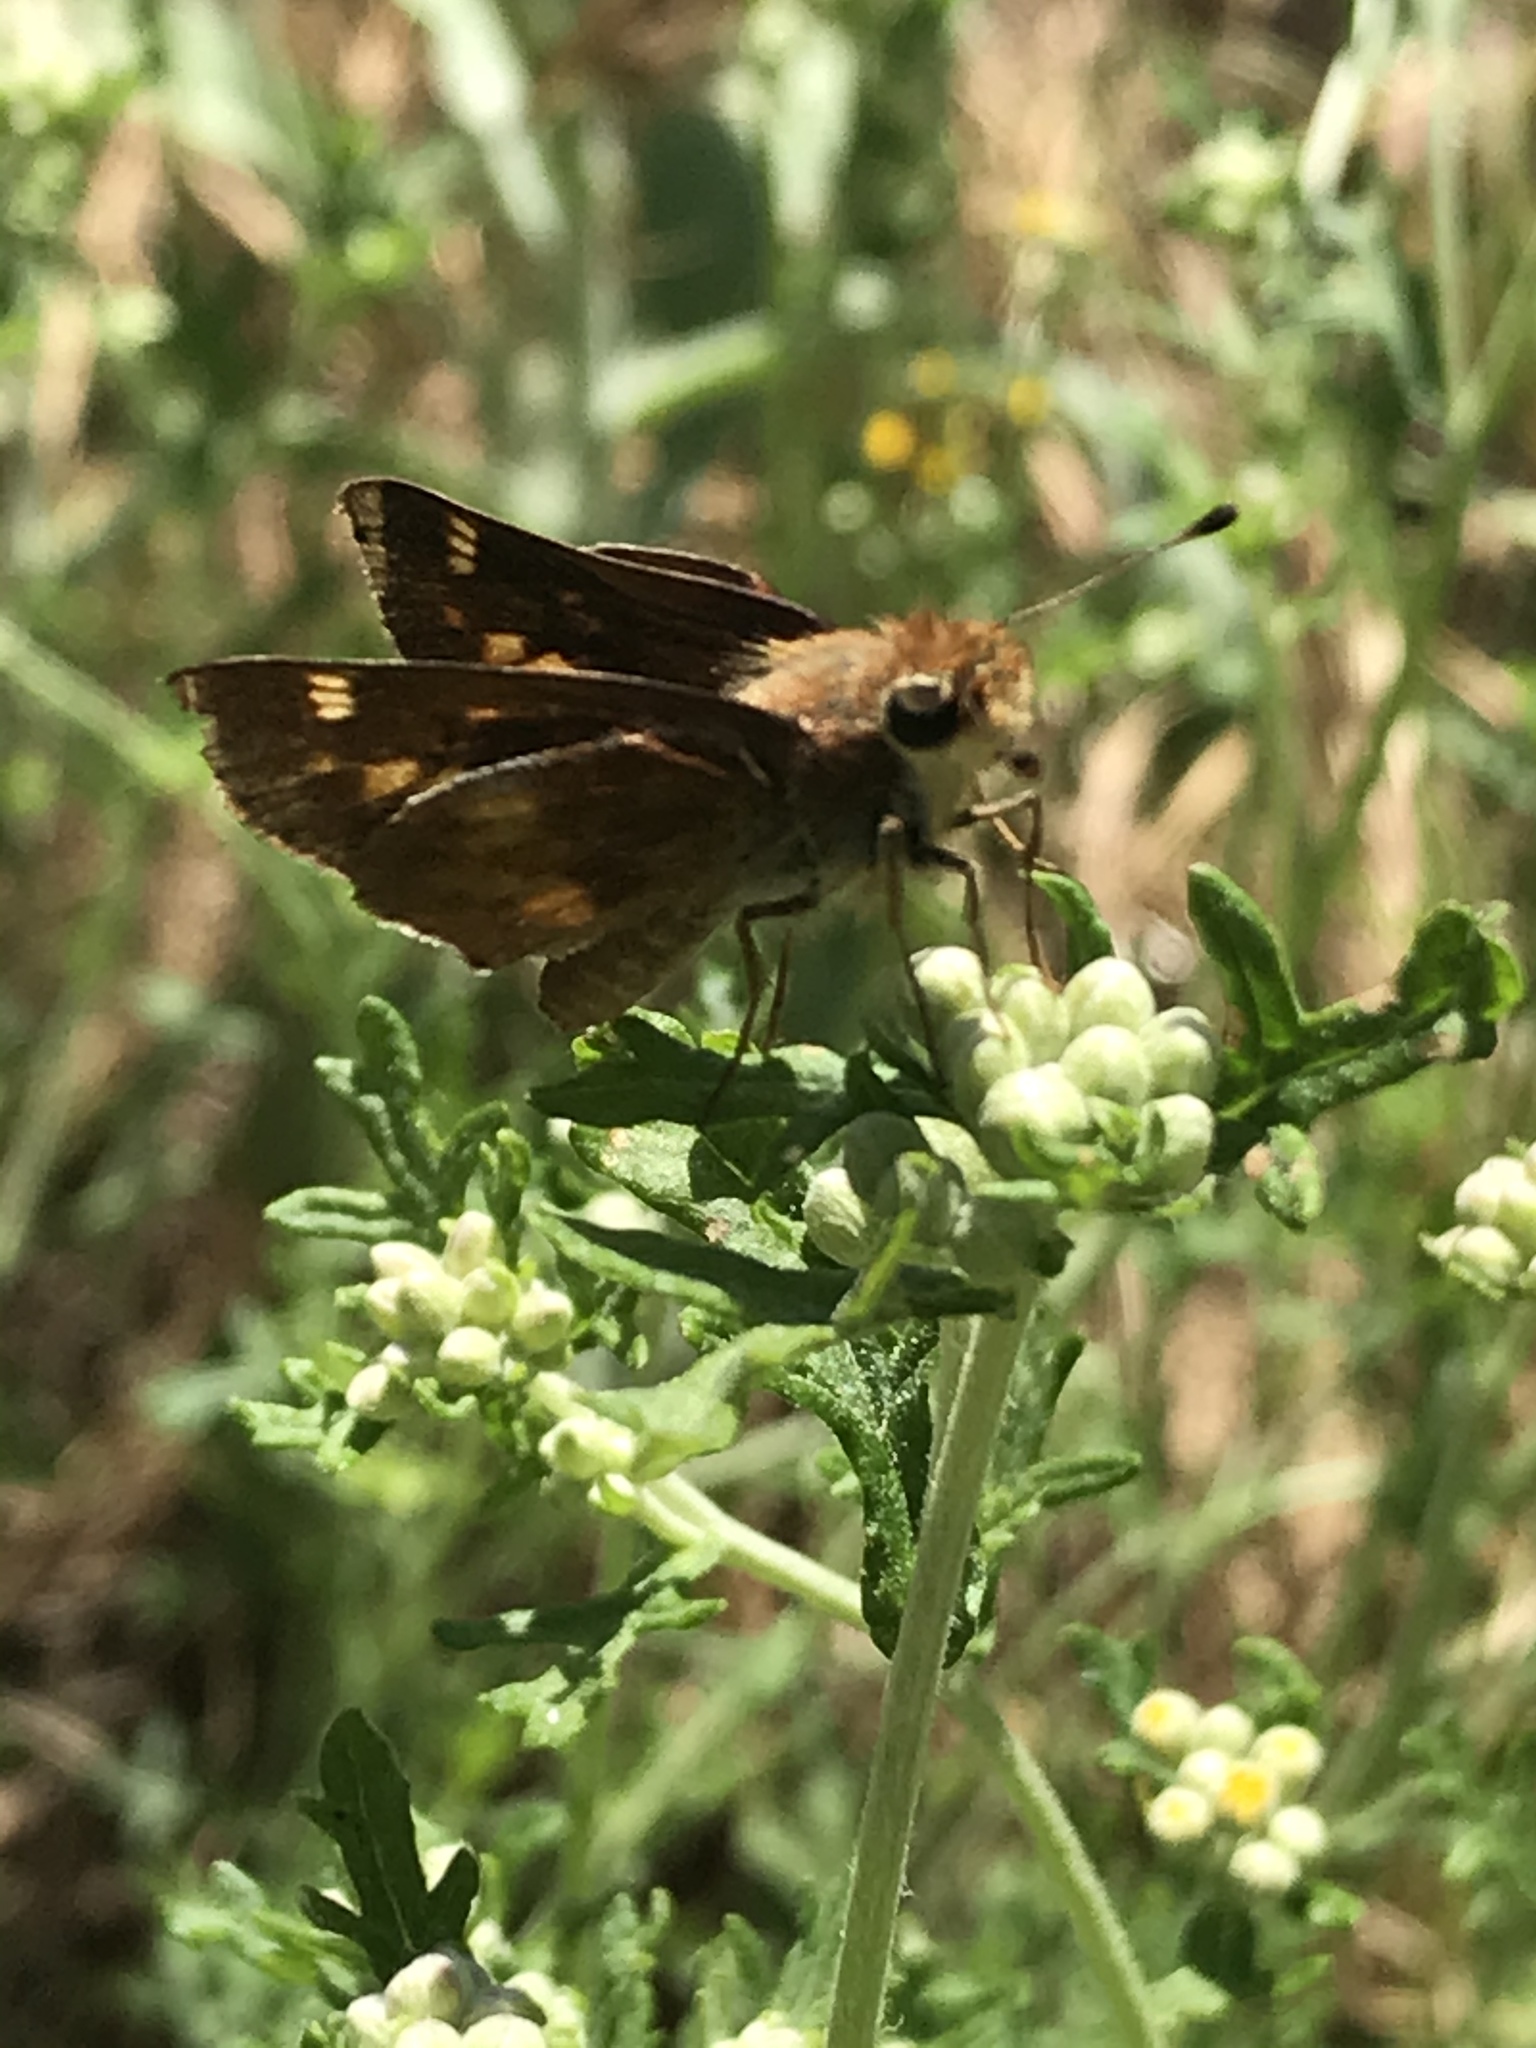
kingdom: Animalia
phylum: Arthropoda
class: Insecta
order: Lepidoptera
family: Hesperiidae
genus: Lon
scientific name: Lon melane
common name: Umber skipper
